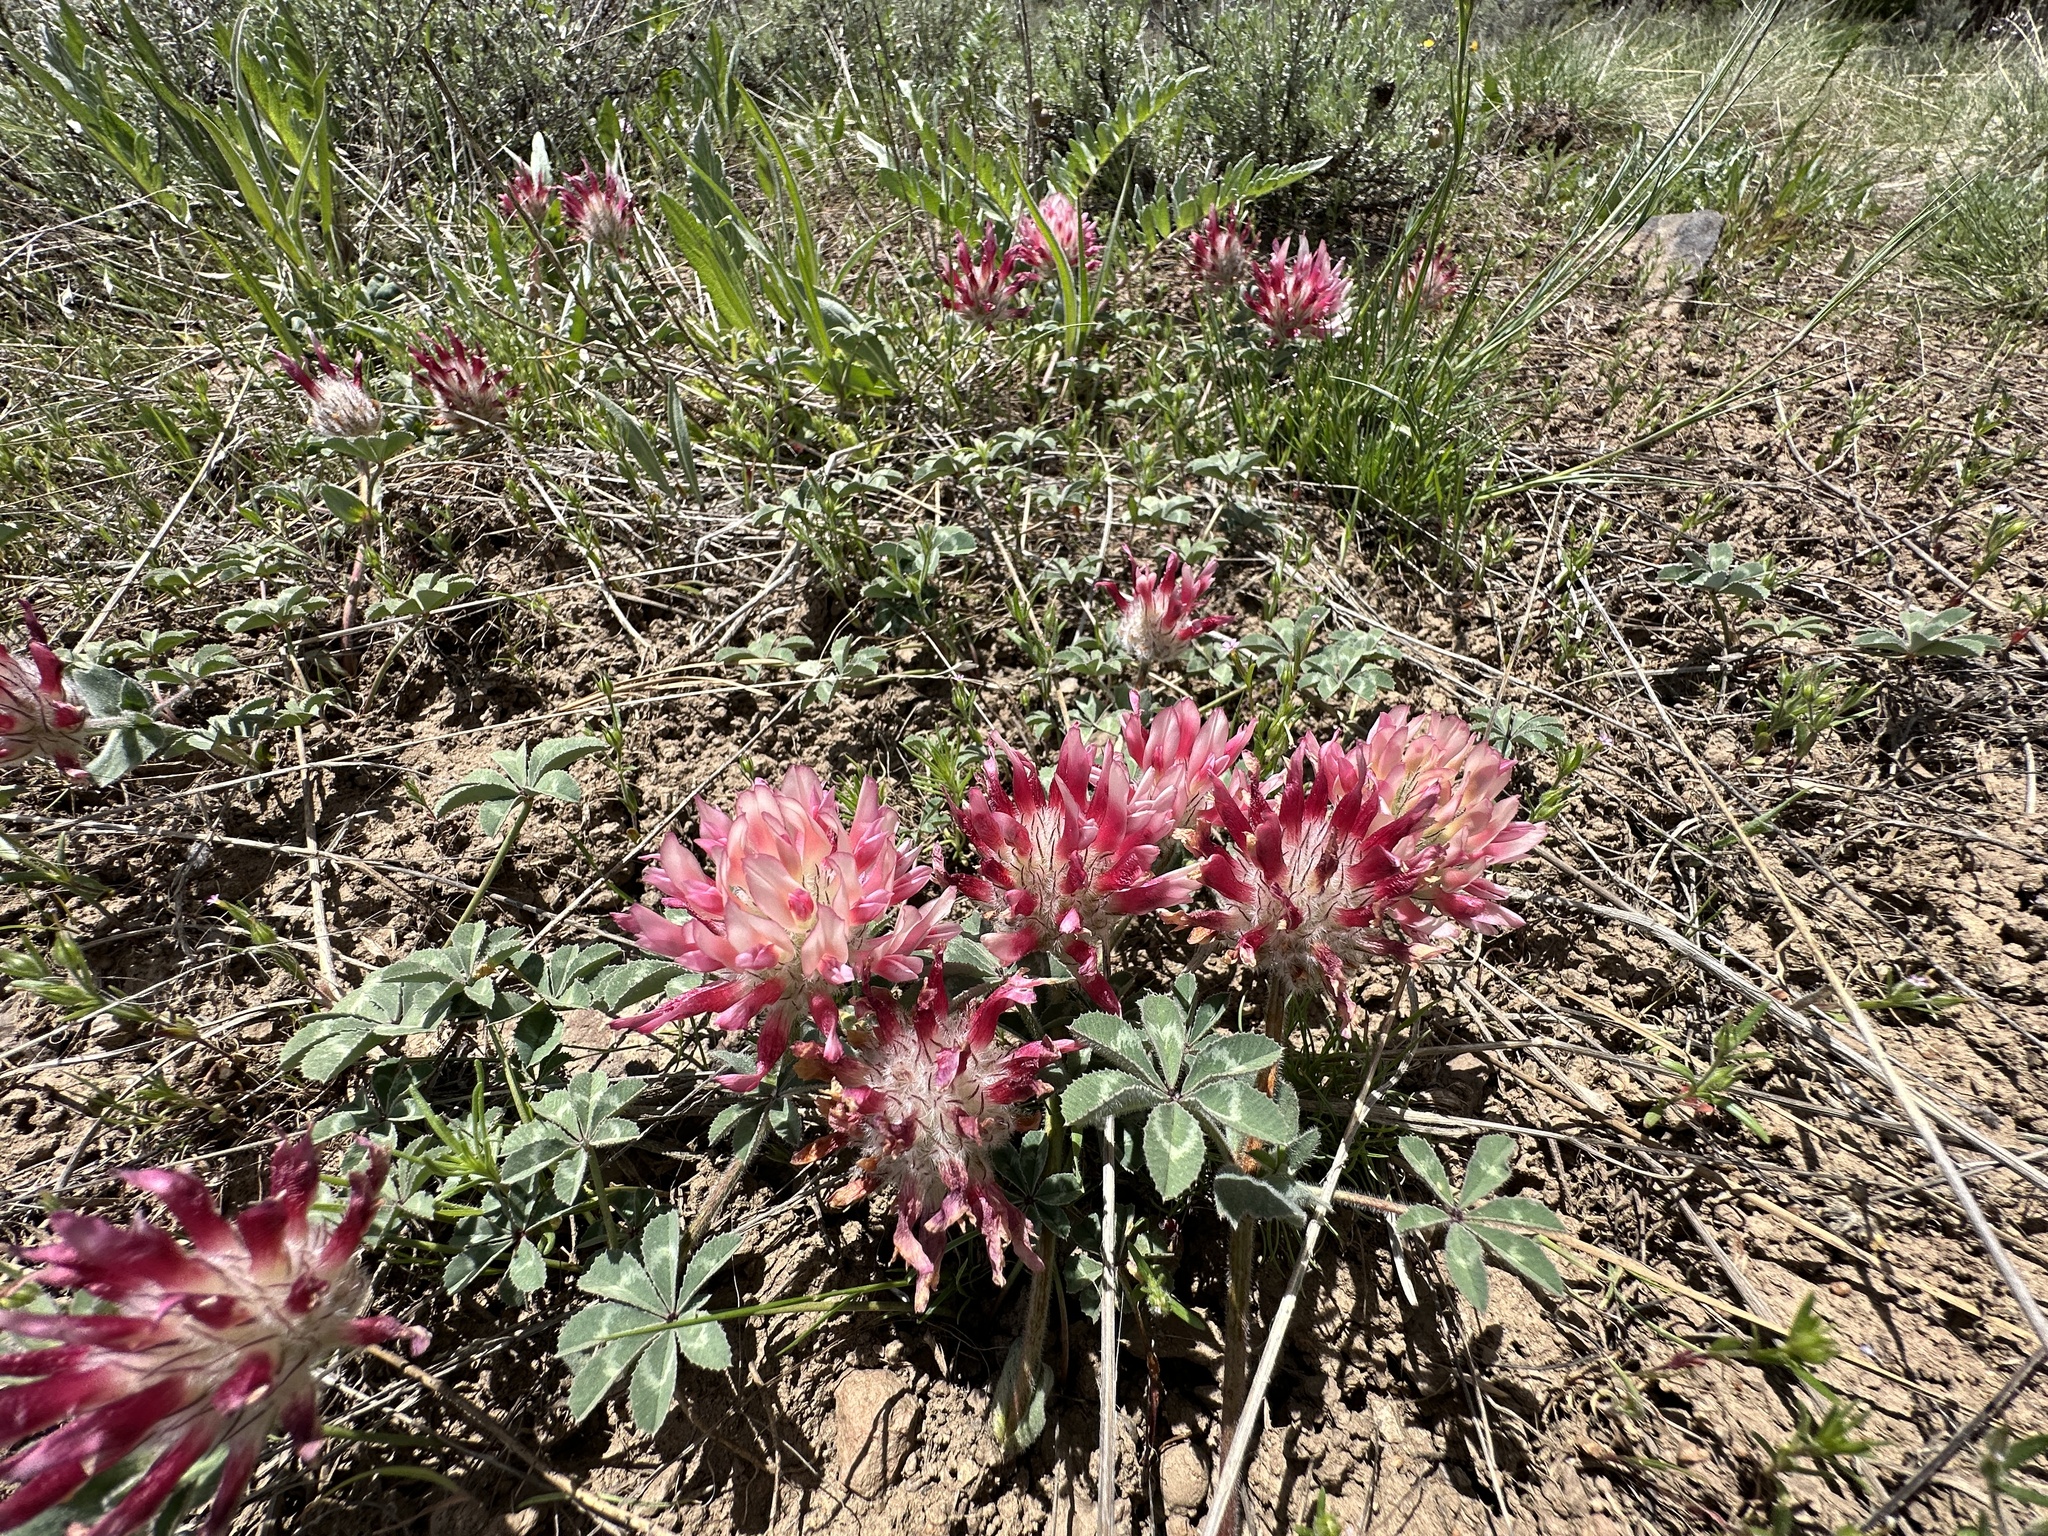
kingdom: Plantae
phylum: Tracheophyta
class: Magnoliopsida
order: Fabales
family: Fabaceae
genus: Trifolium
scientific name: Trifolium macrocephalum
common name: Large-head clover
